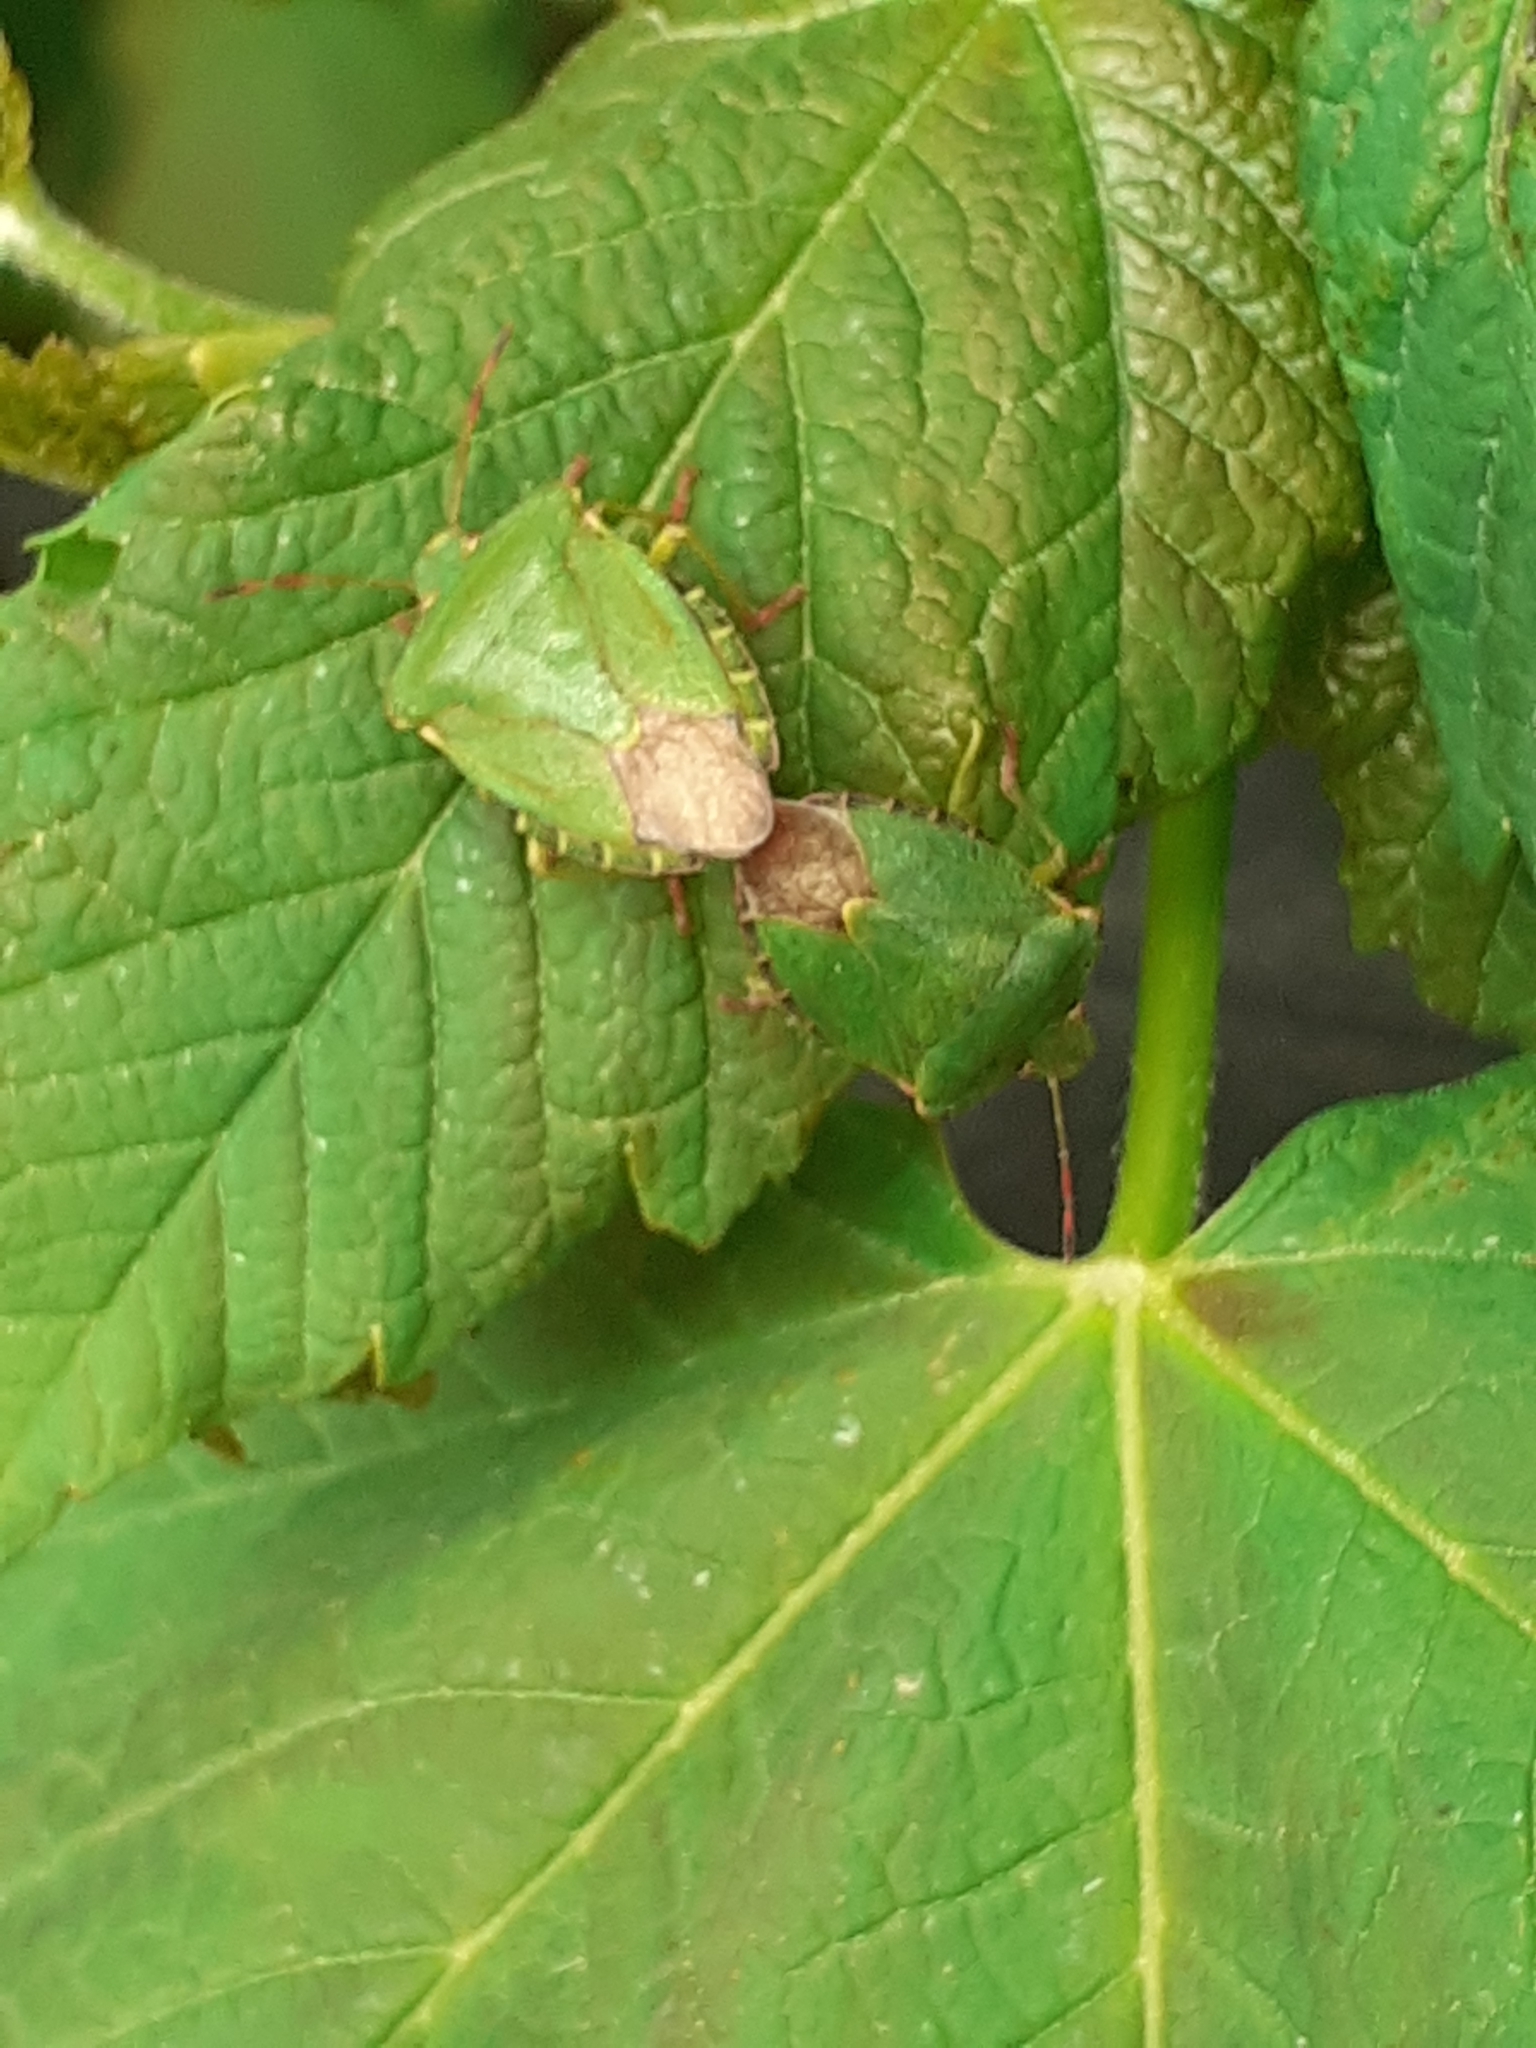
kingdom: Animalia
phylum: Arthropoda
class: Insecta
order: Hemiptera
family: Pentatomidae
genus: Palomena
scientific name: Palomena prasina
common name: Green shieldbug
